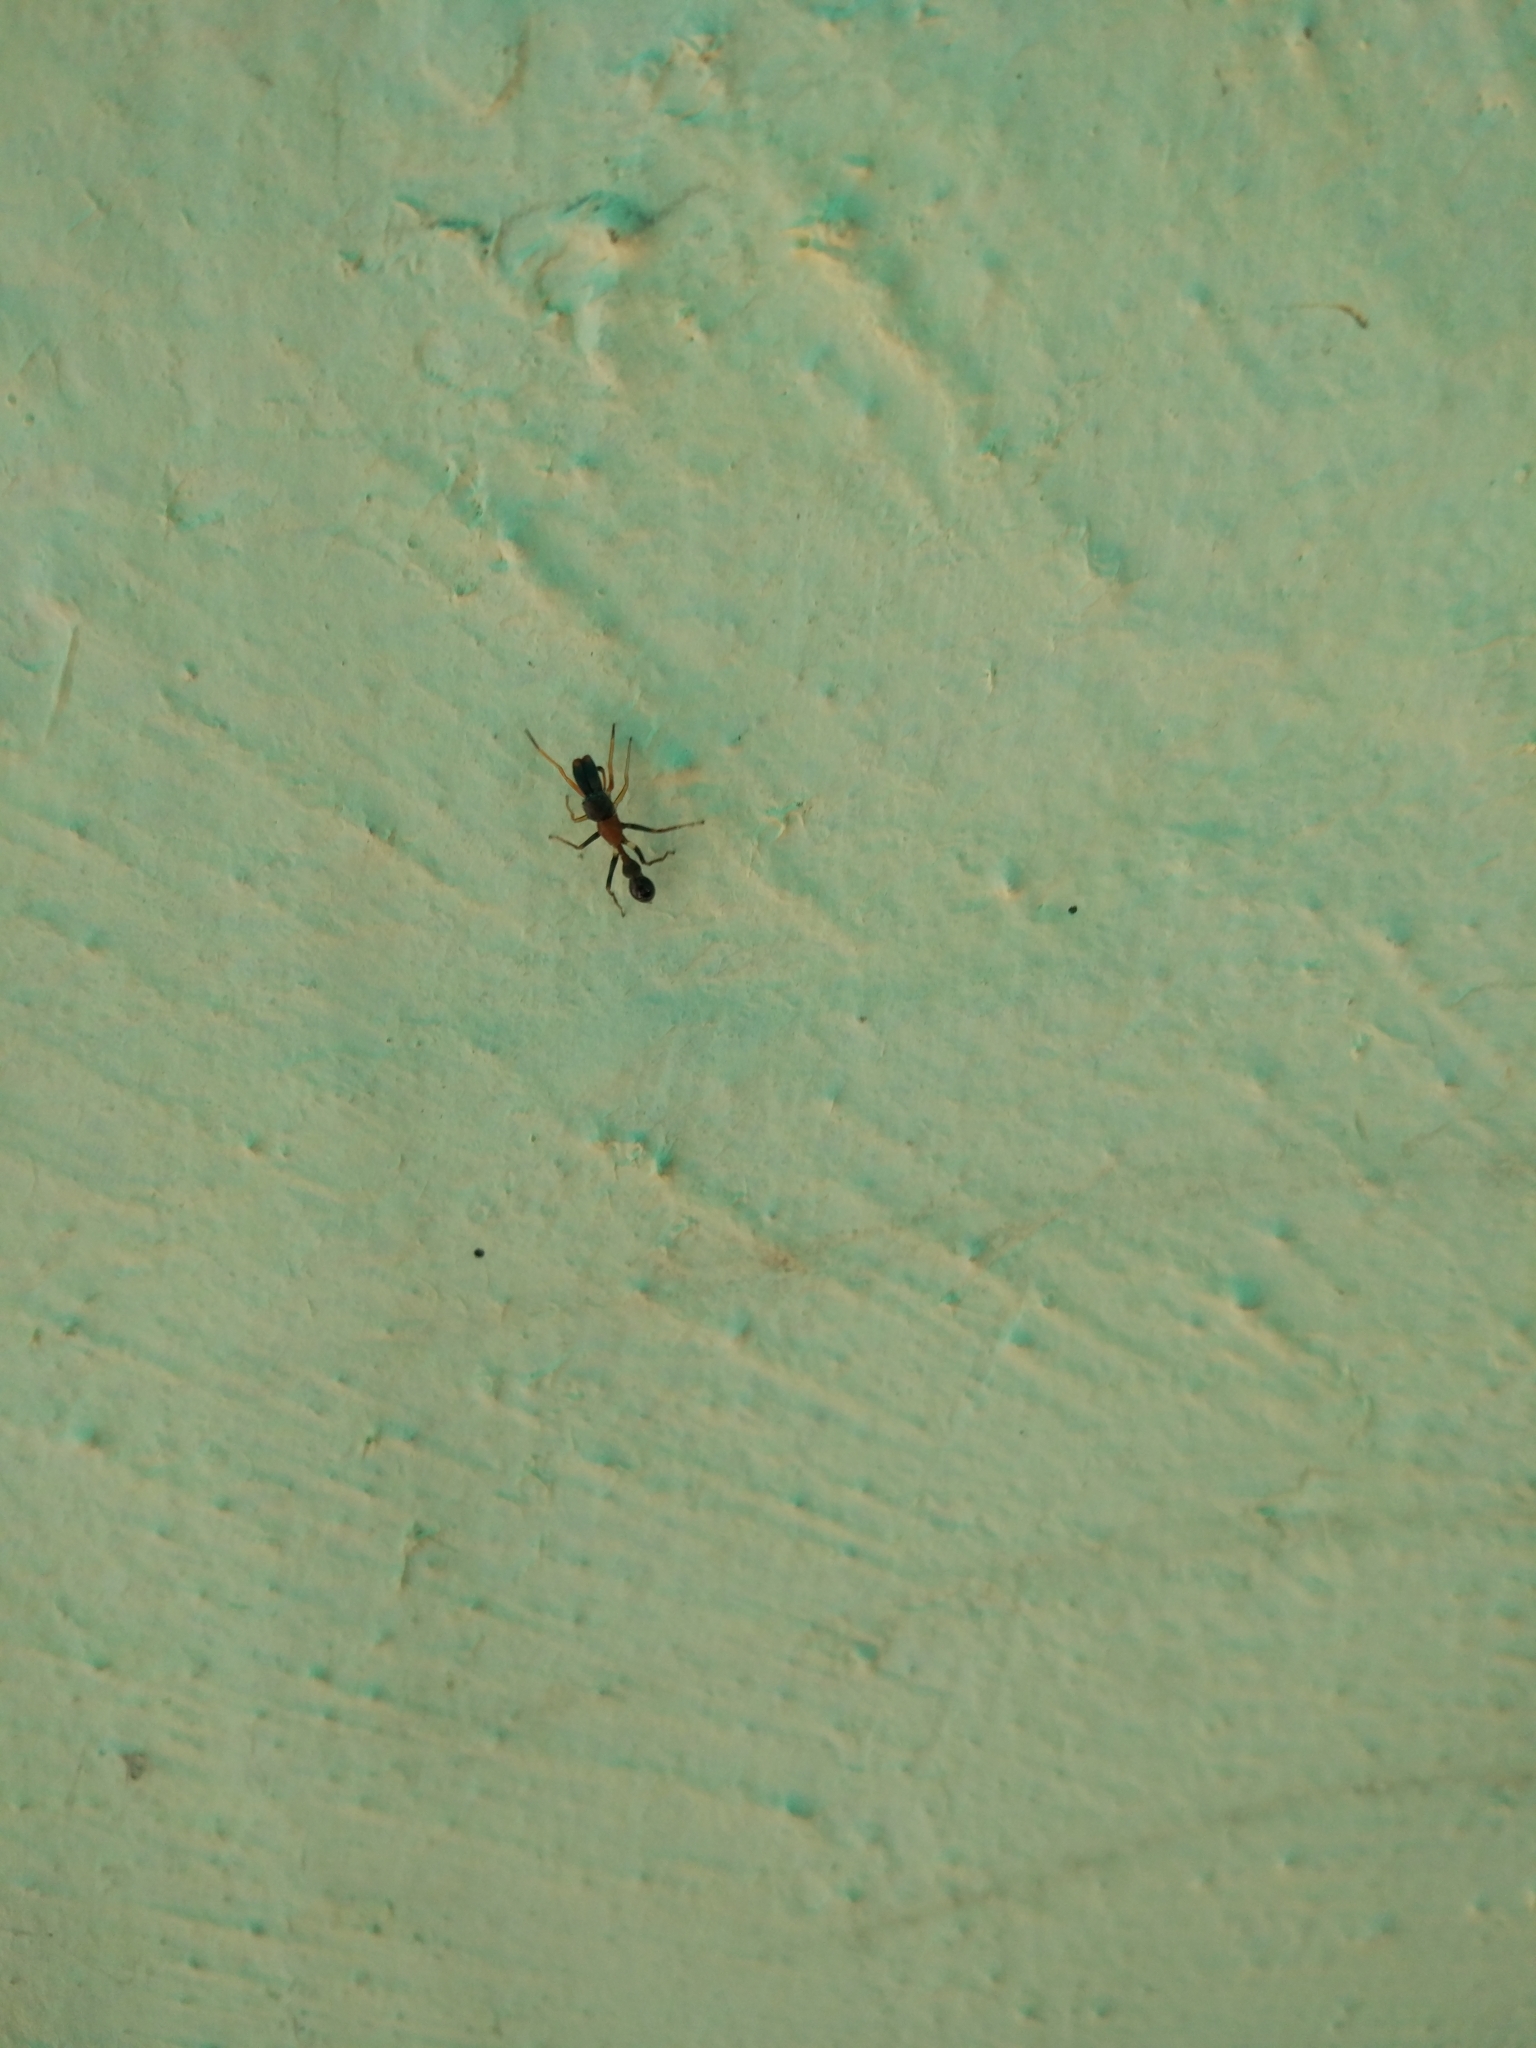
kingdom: Animalia
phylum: Arthropoda
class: Arachnida
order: Araneae
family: Salticidae
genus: Myrmarachne
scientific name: Myrmarachne melanocephala
